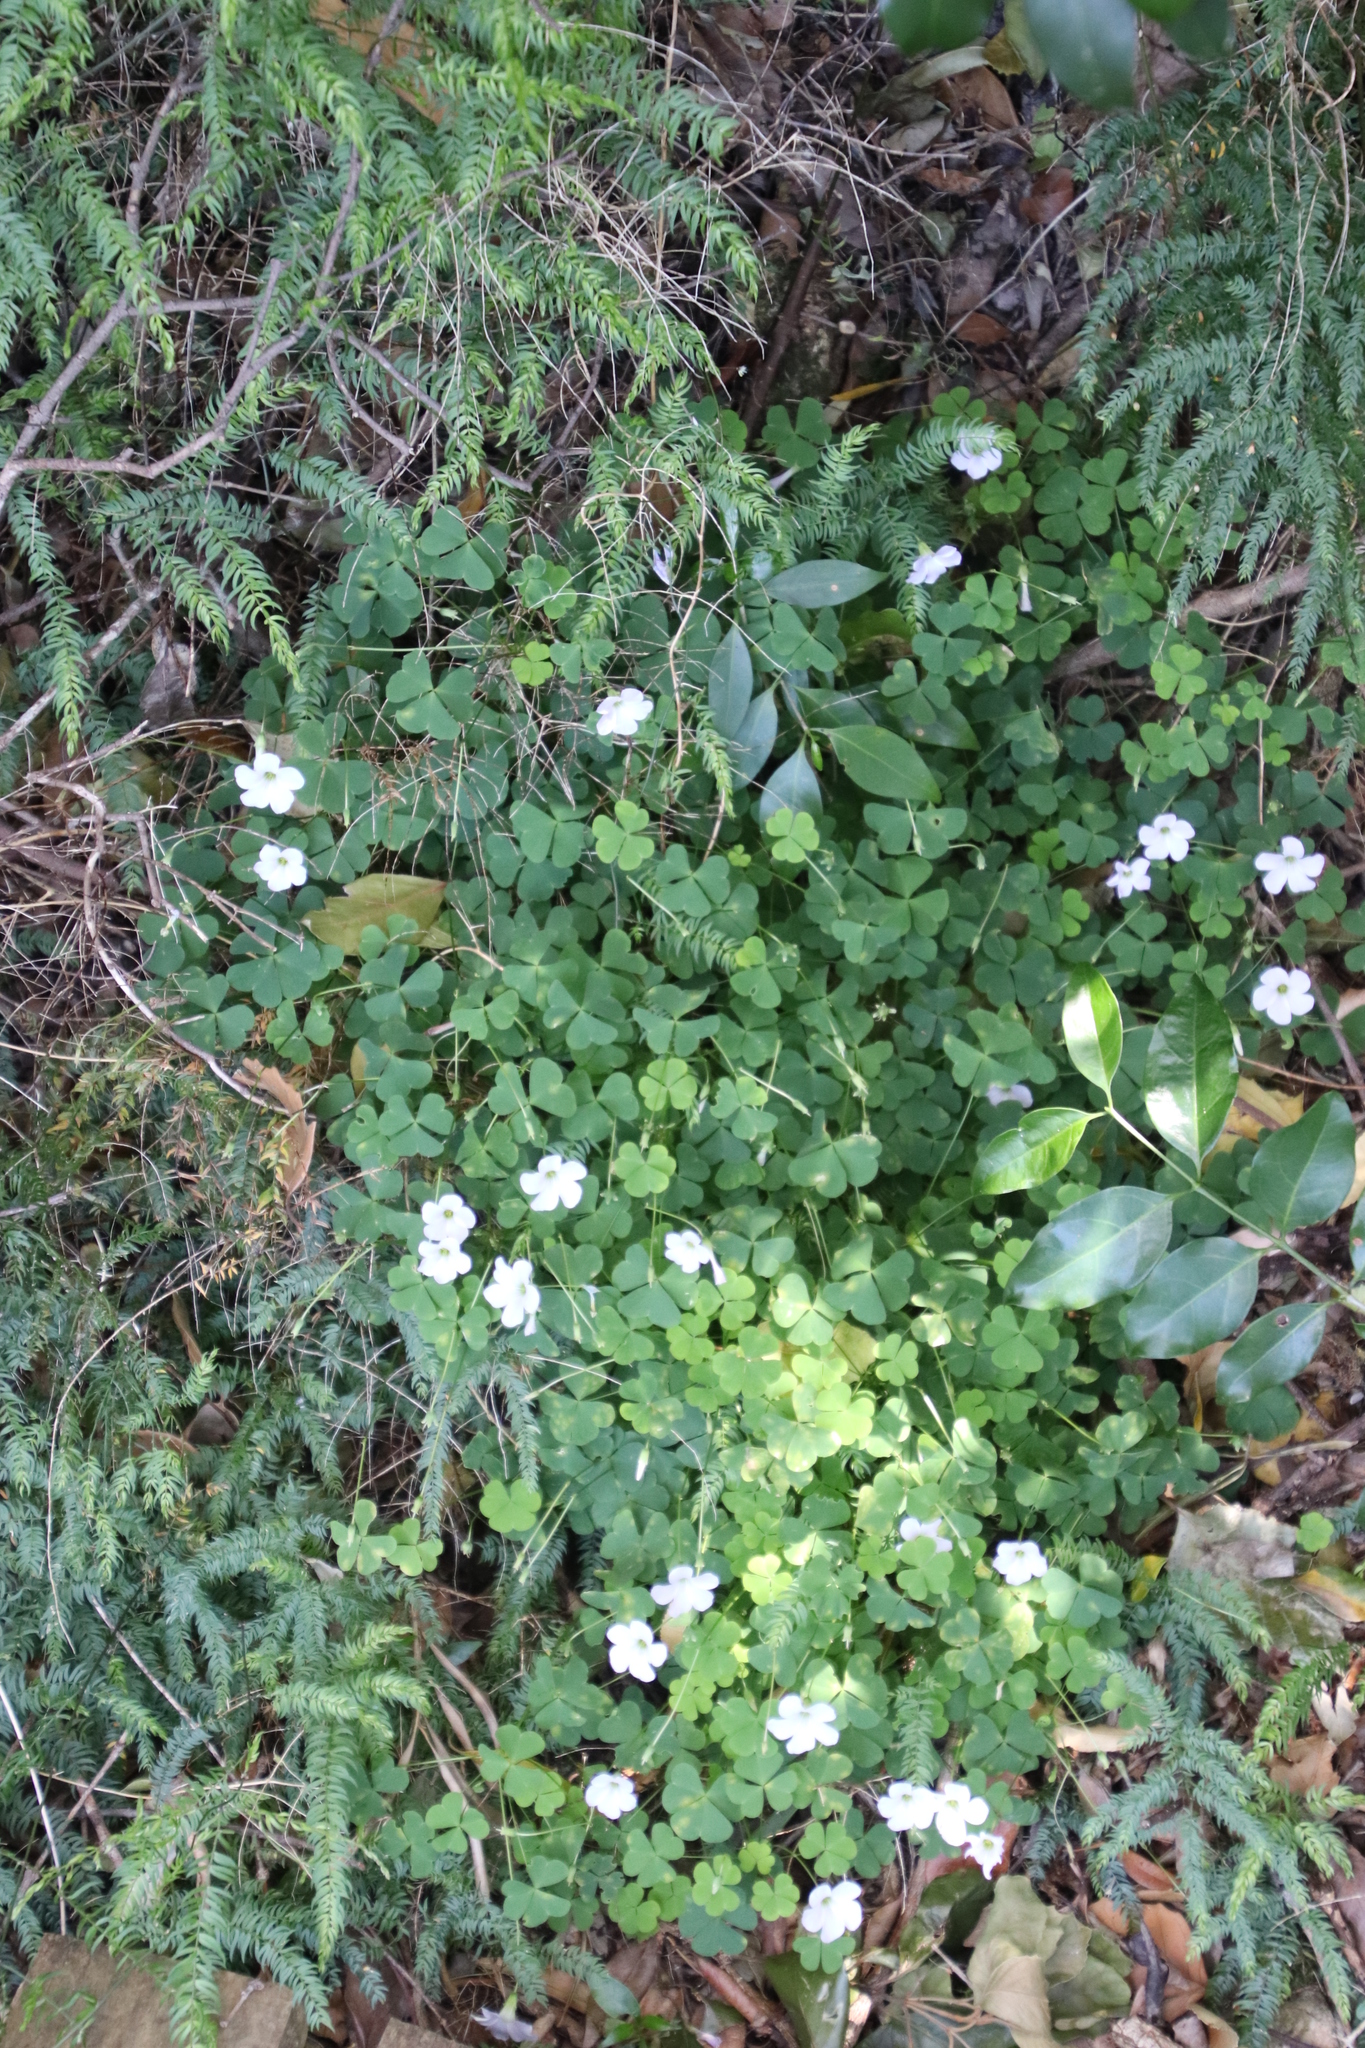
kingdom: Plantae
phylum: Tracheophyta
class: Magnoliopsida
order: Oxalidales
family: Oxalidaceae
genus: Oxalis
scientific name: Oxalis incarnata
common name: Pale pink-sorrel
